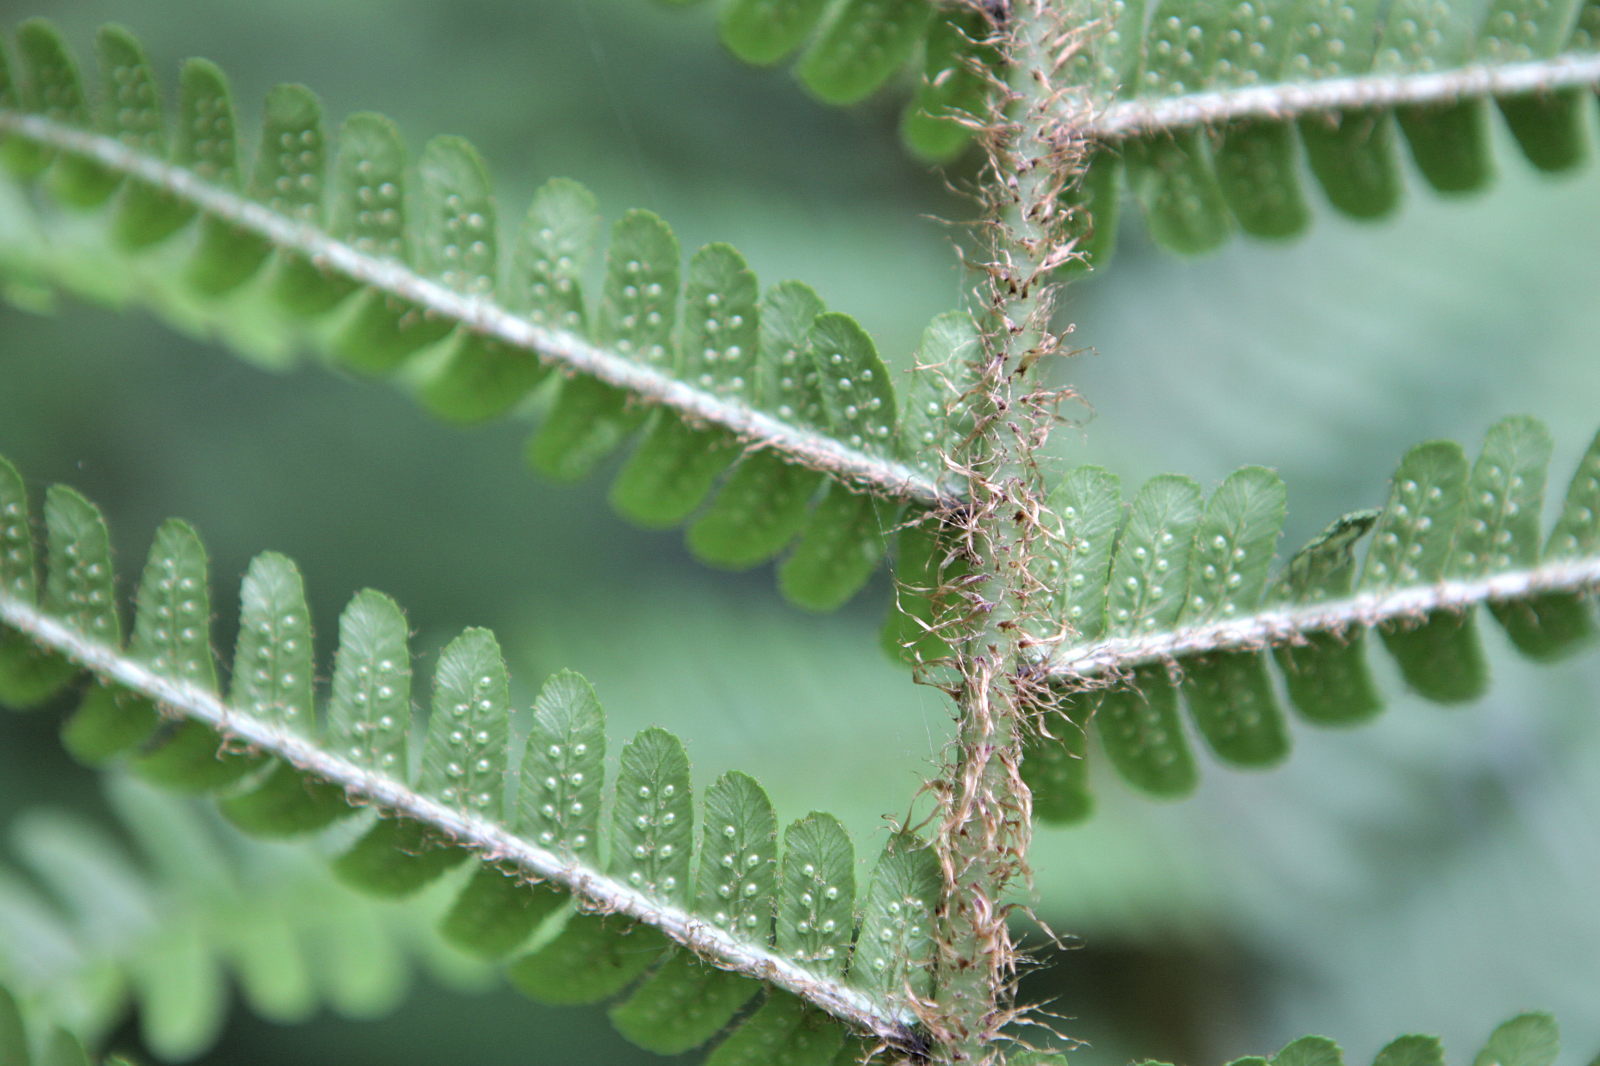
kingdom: Plantae
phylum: Tracheophyta
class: Polypodiopsida
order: Polypodiales
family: Dryopteridaceae
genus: Dryopteris
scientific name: Dryopteris affinis
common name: Scaly male fern
